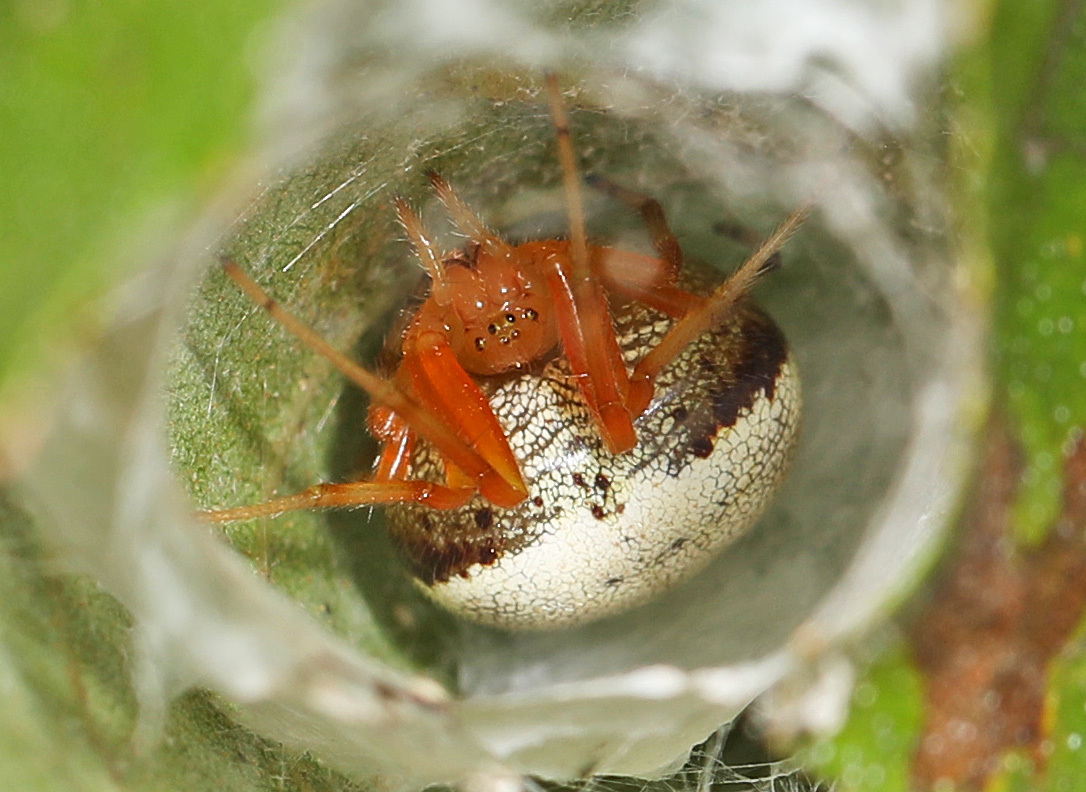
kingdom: Animalia
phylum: Arthropoda
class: Arachnida
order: Araneae
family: Araneidae
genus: Araneus
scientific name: Araneus thaddeus
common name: Lattice orbweaver
